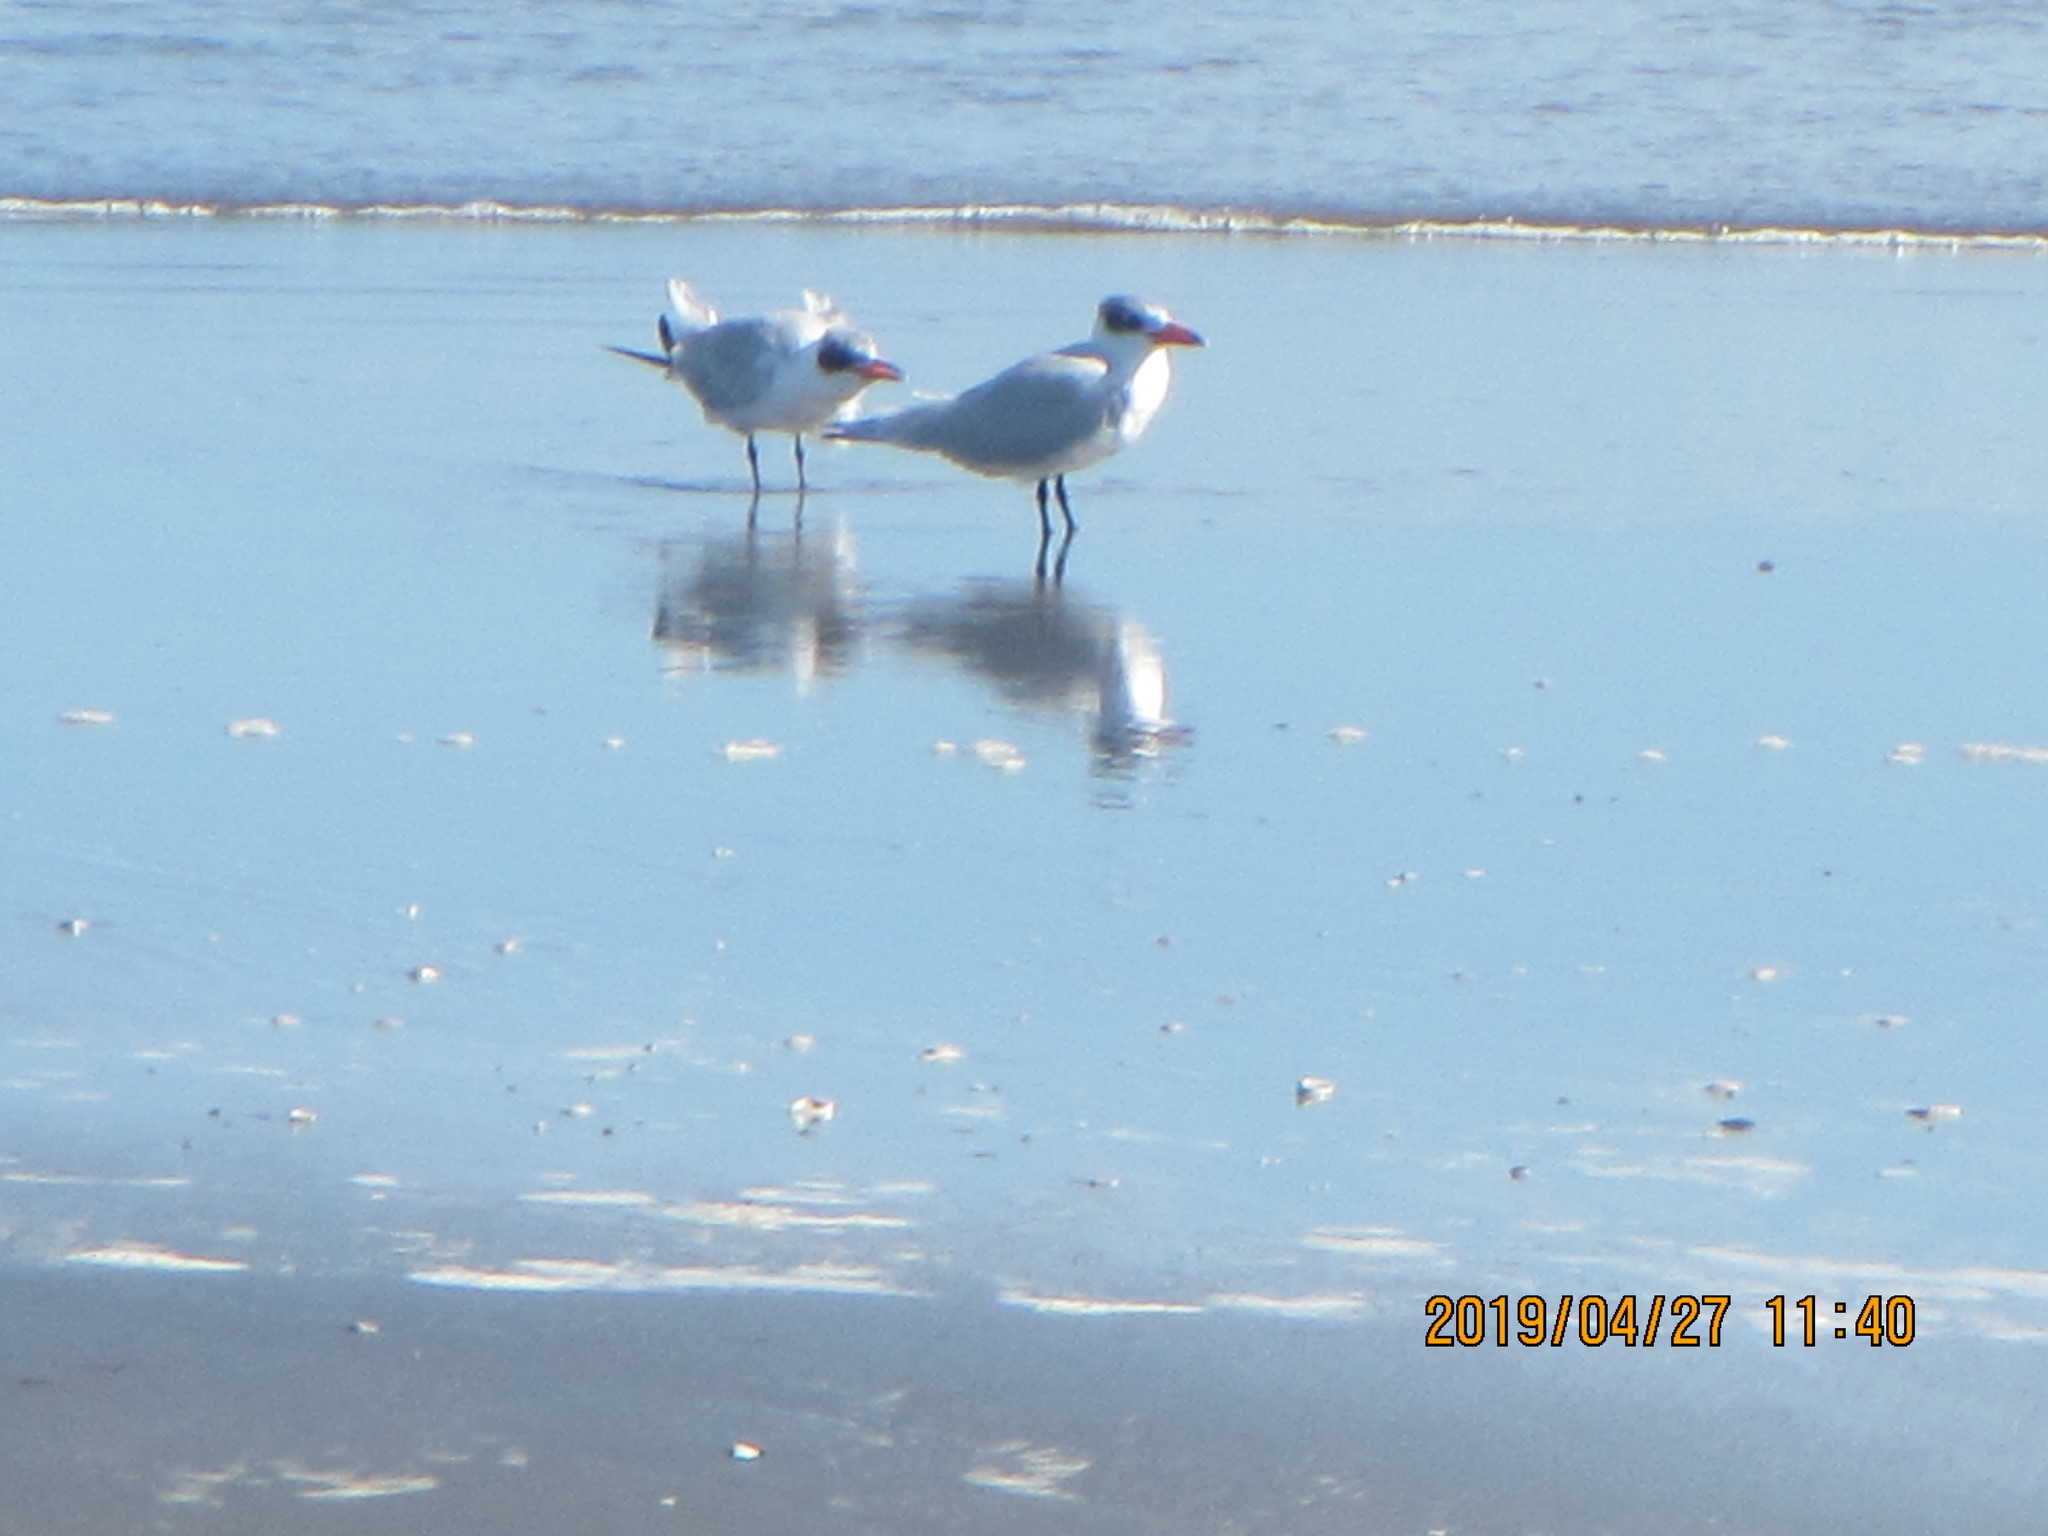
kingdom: Animalia
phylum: Chordata
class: Aves
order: Charadriiformes
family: Laridae
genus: Hydroprogne
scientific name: Hydroprogne caspia
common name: Caspian tern
